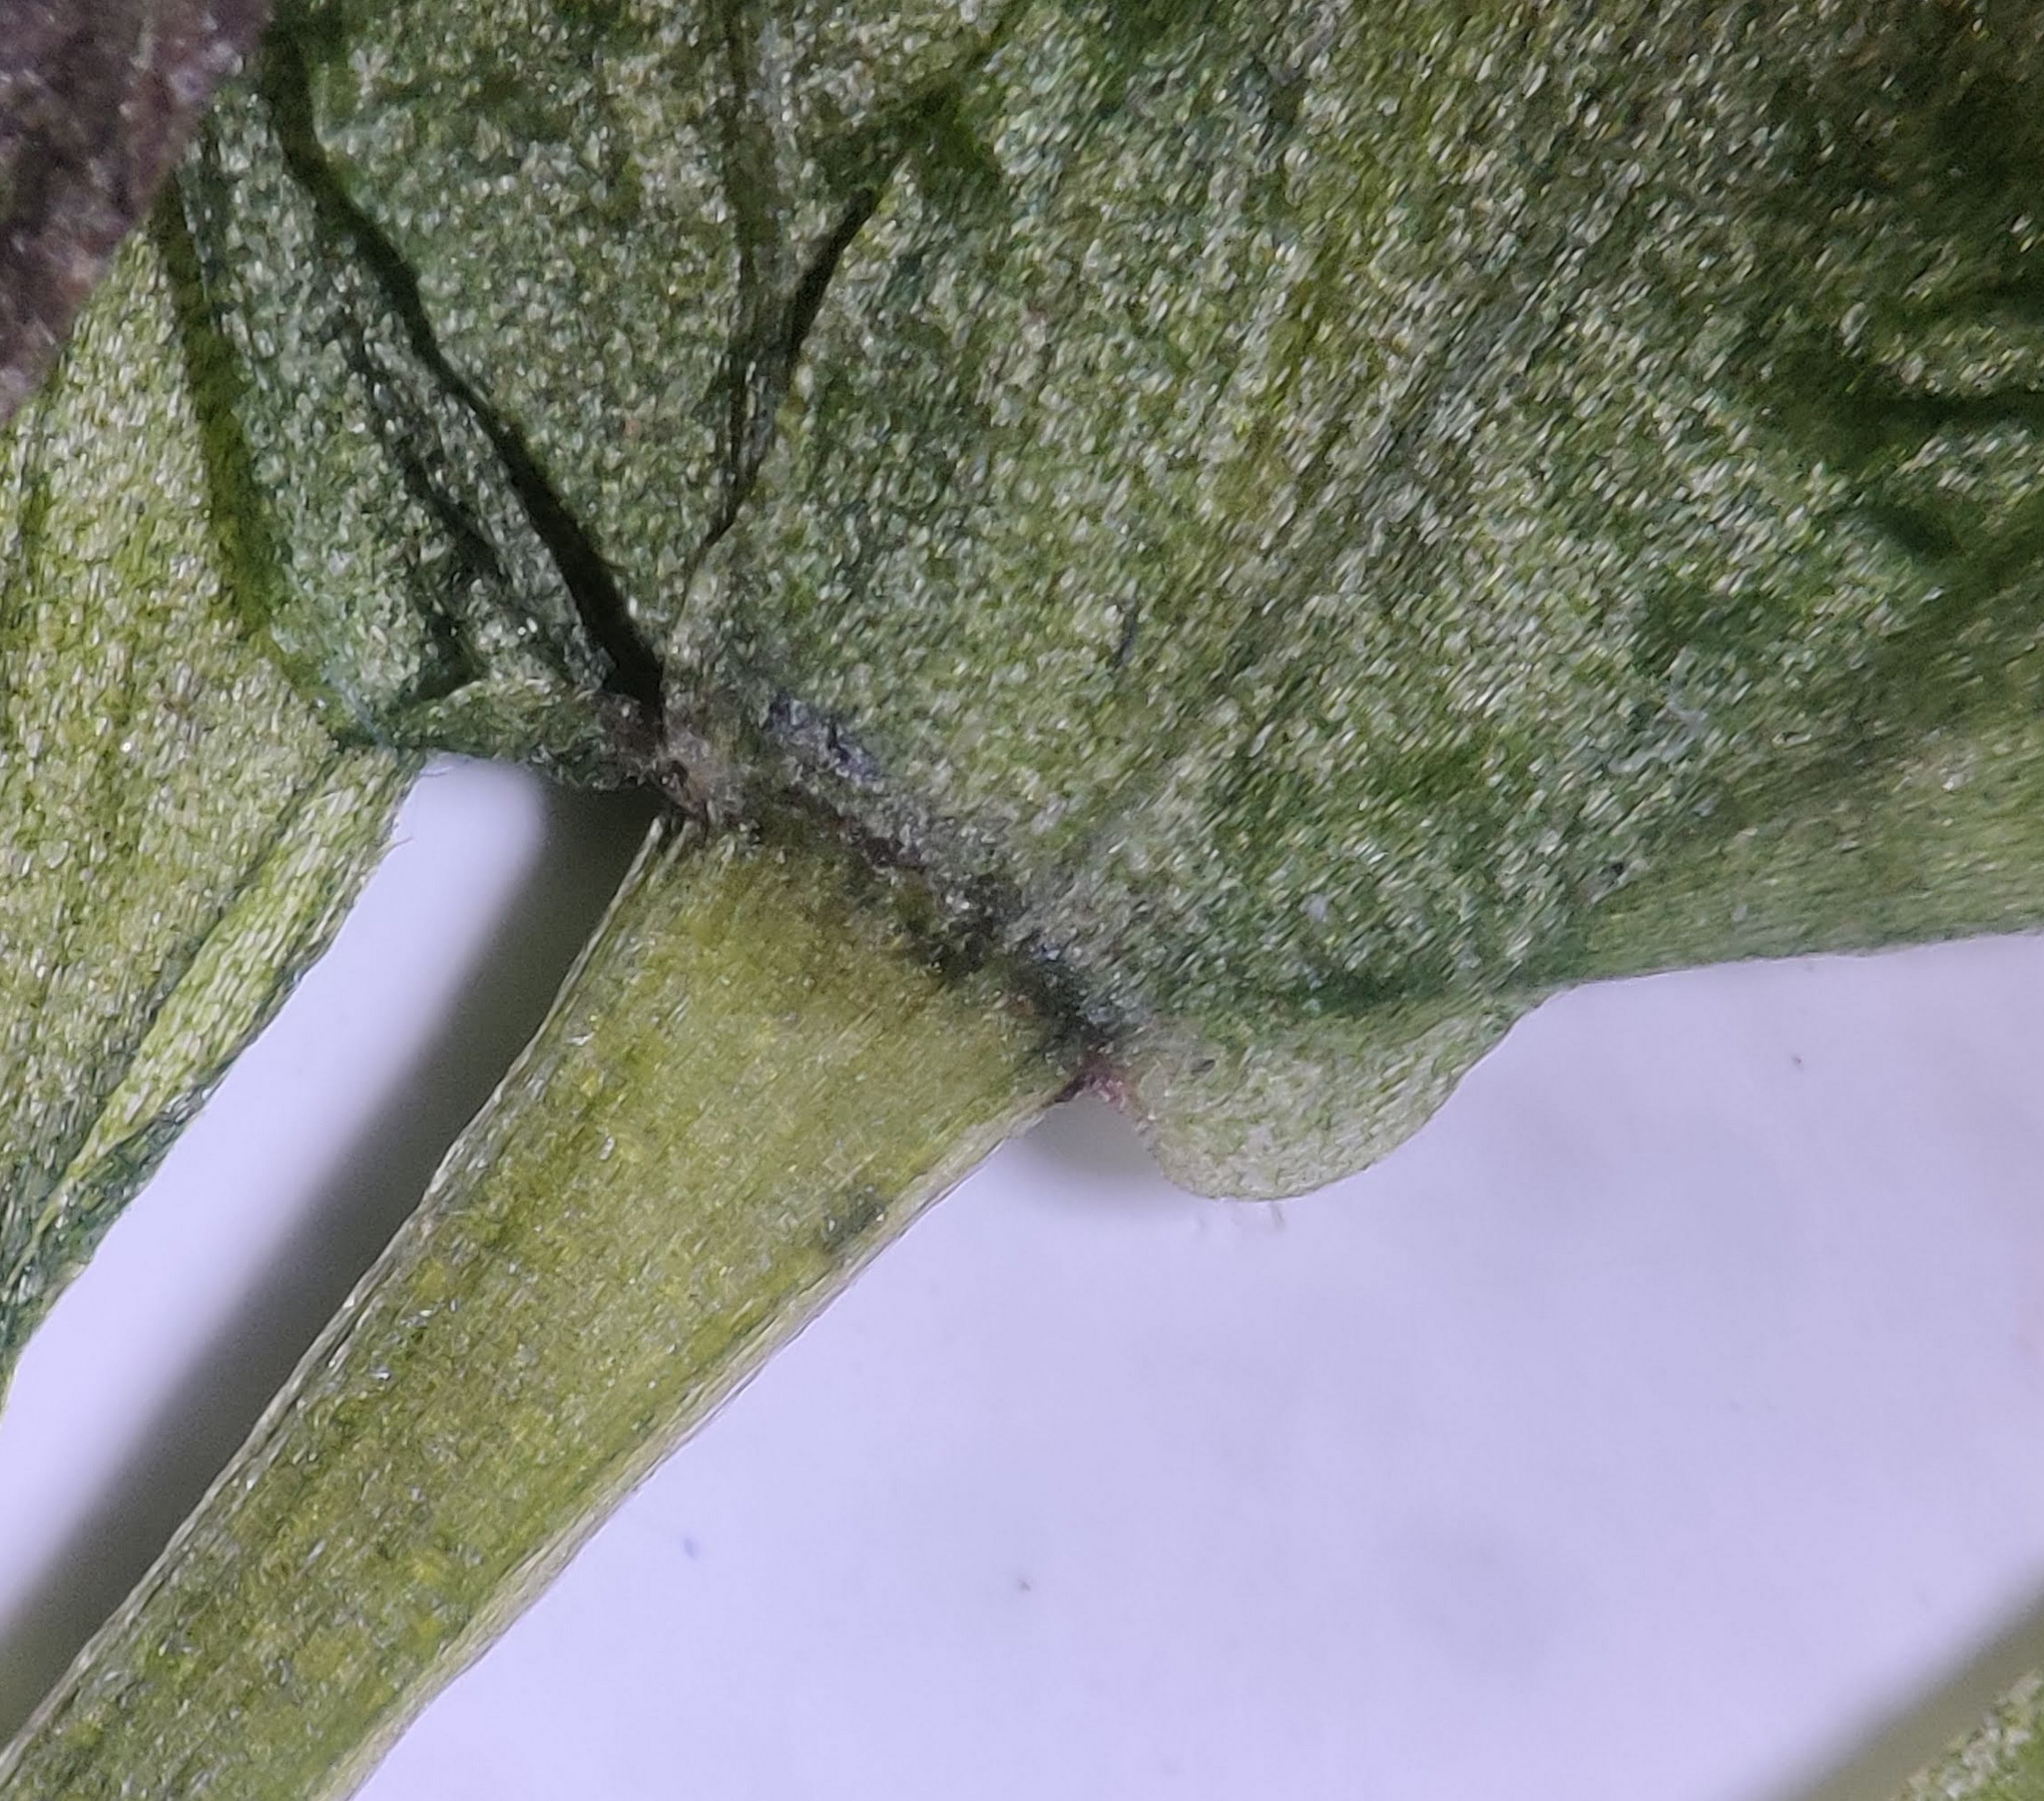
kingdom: Plantae
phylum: Tracheophyta
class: Liliopsida
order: Alismatales
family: Hydrocharitaceae
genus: Elodea
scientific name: Elodea densa
